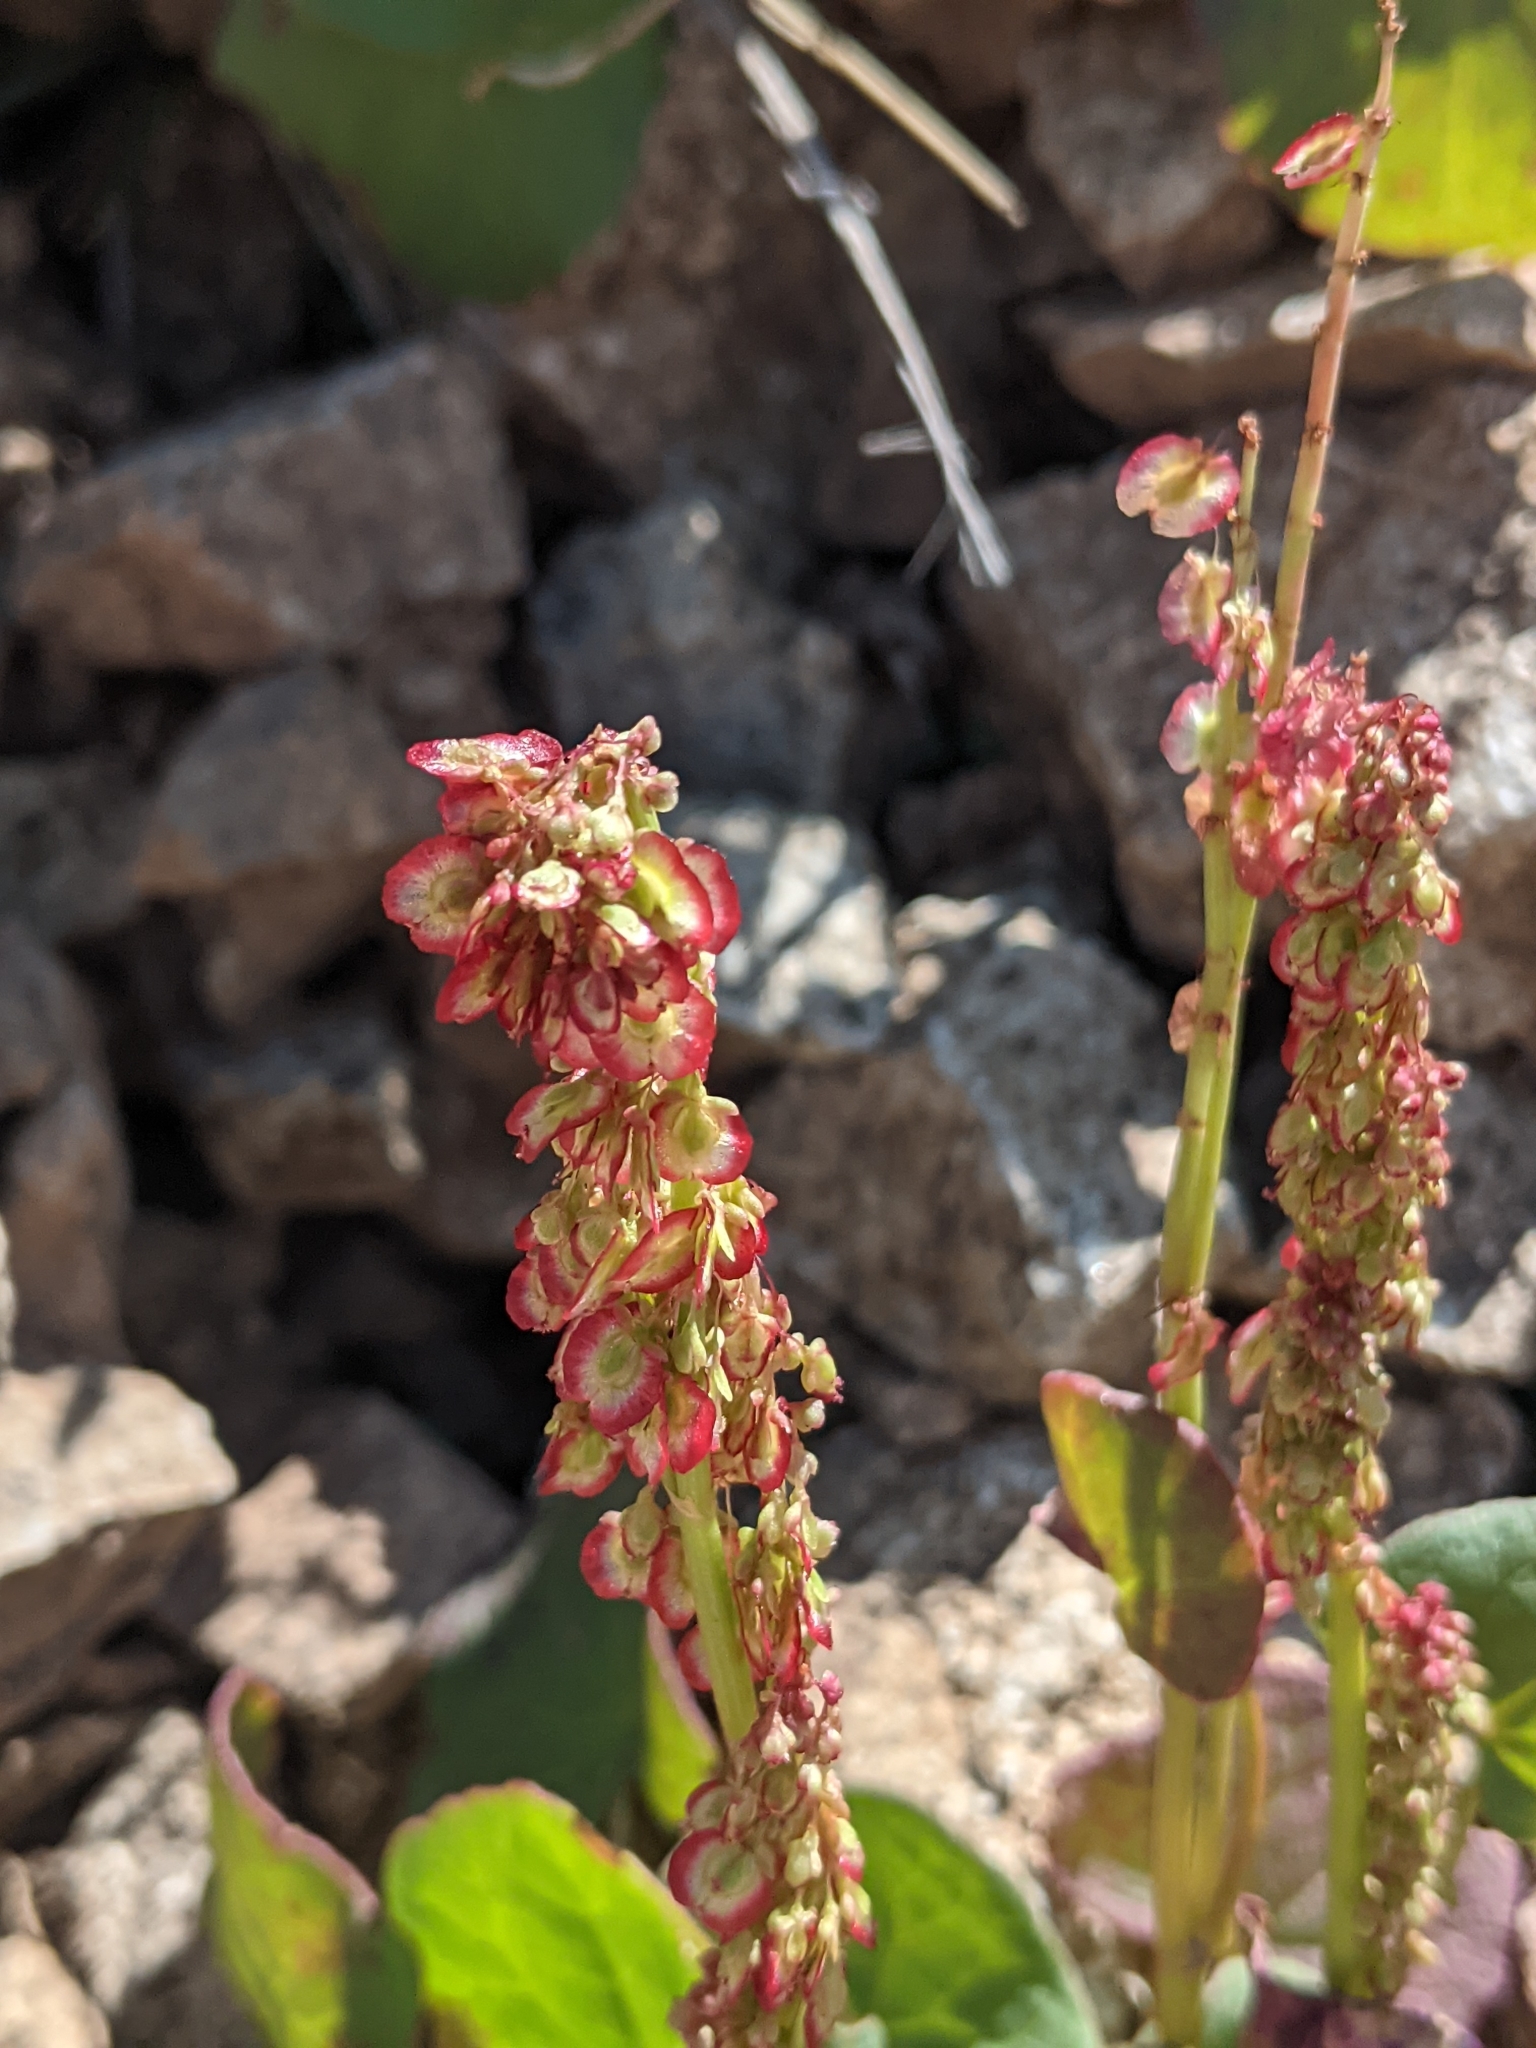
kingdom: Plantae
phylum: Tracheophyta
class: Magnoliopsida
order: Caryophyllales
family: Polygonaceae
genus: Oxyria
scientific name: Oxyria digyna
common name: Alpine mountain-sorrel
